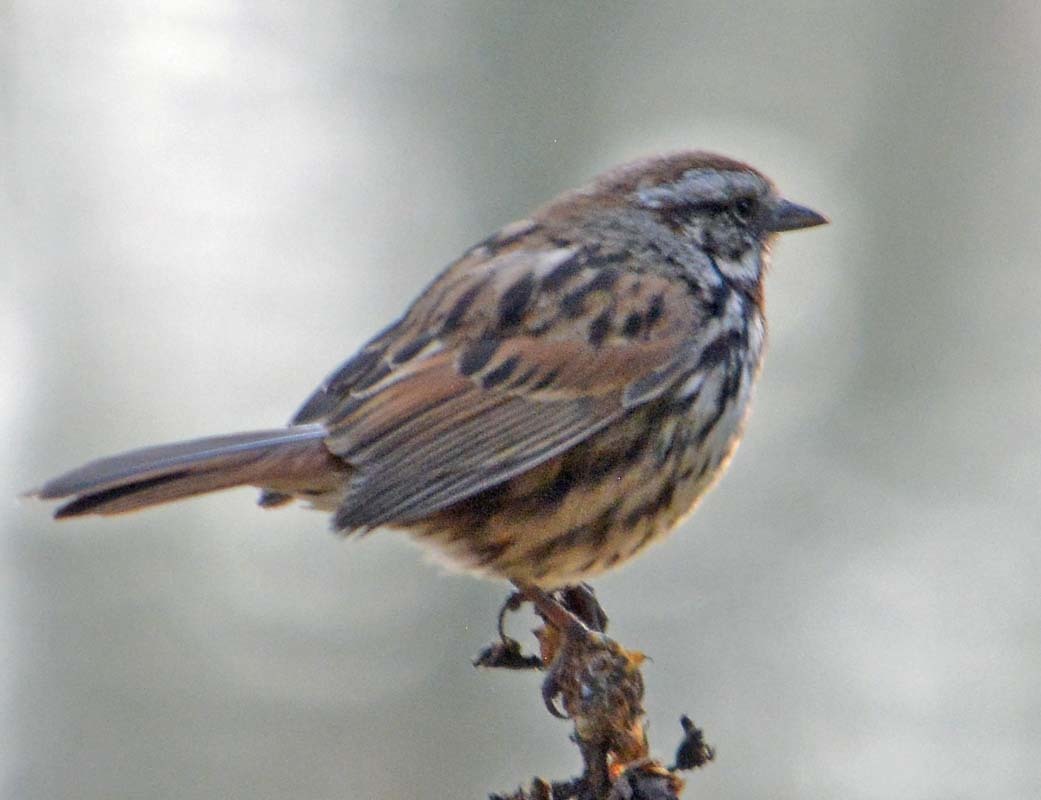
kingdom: Animalia
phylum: Chordata
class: Aves
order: Passeriformes
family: Passerellidae
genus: Melospiza
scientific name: Melospiza melodia
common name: Song sparrow
